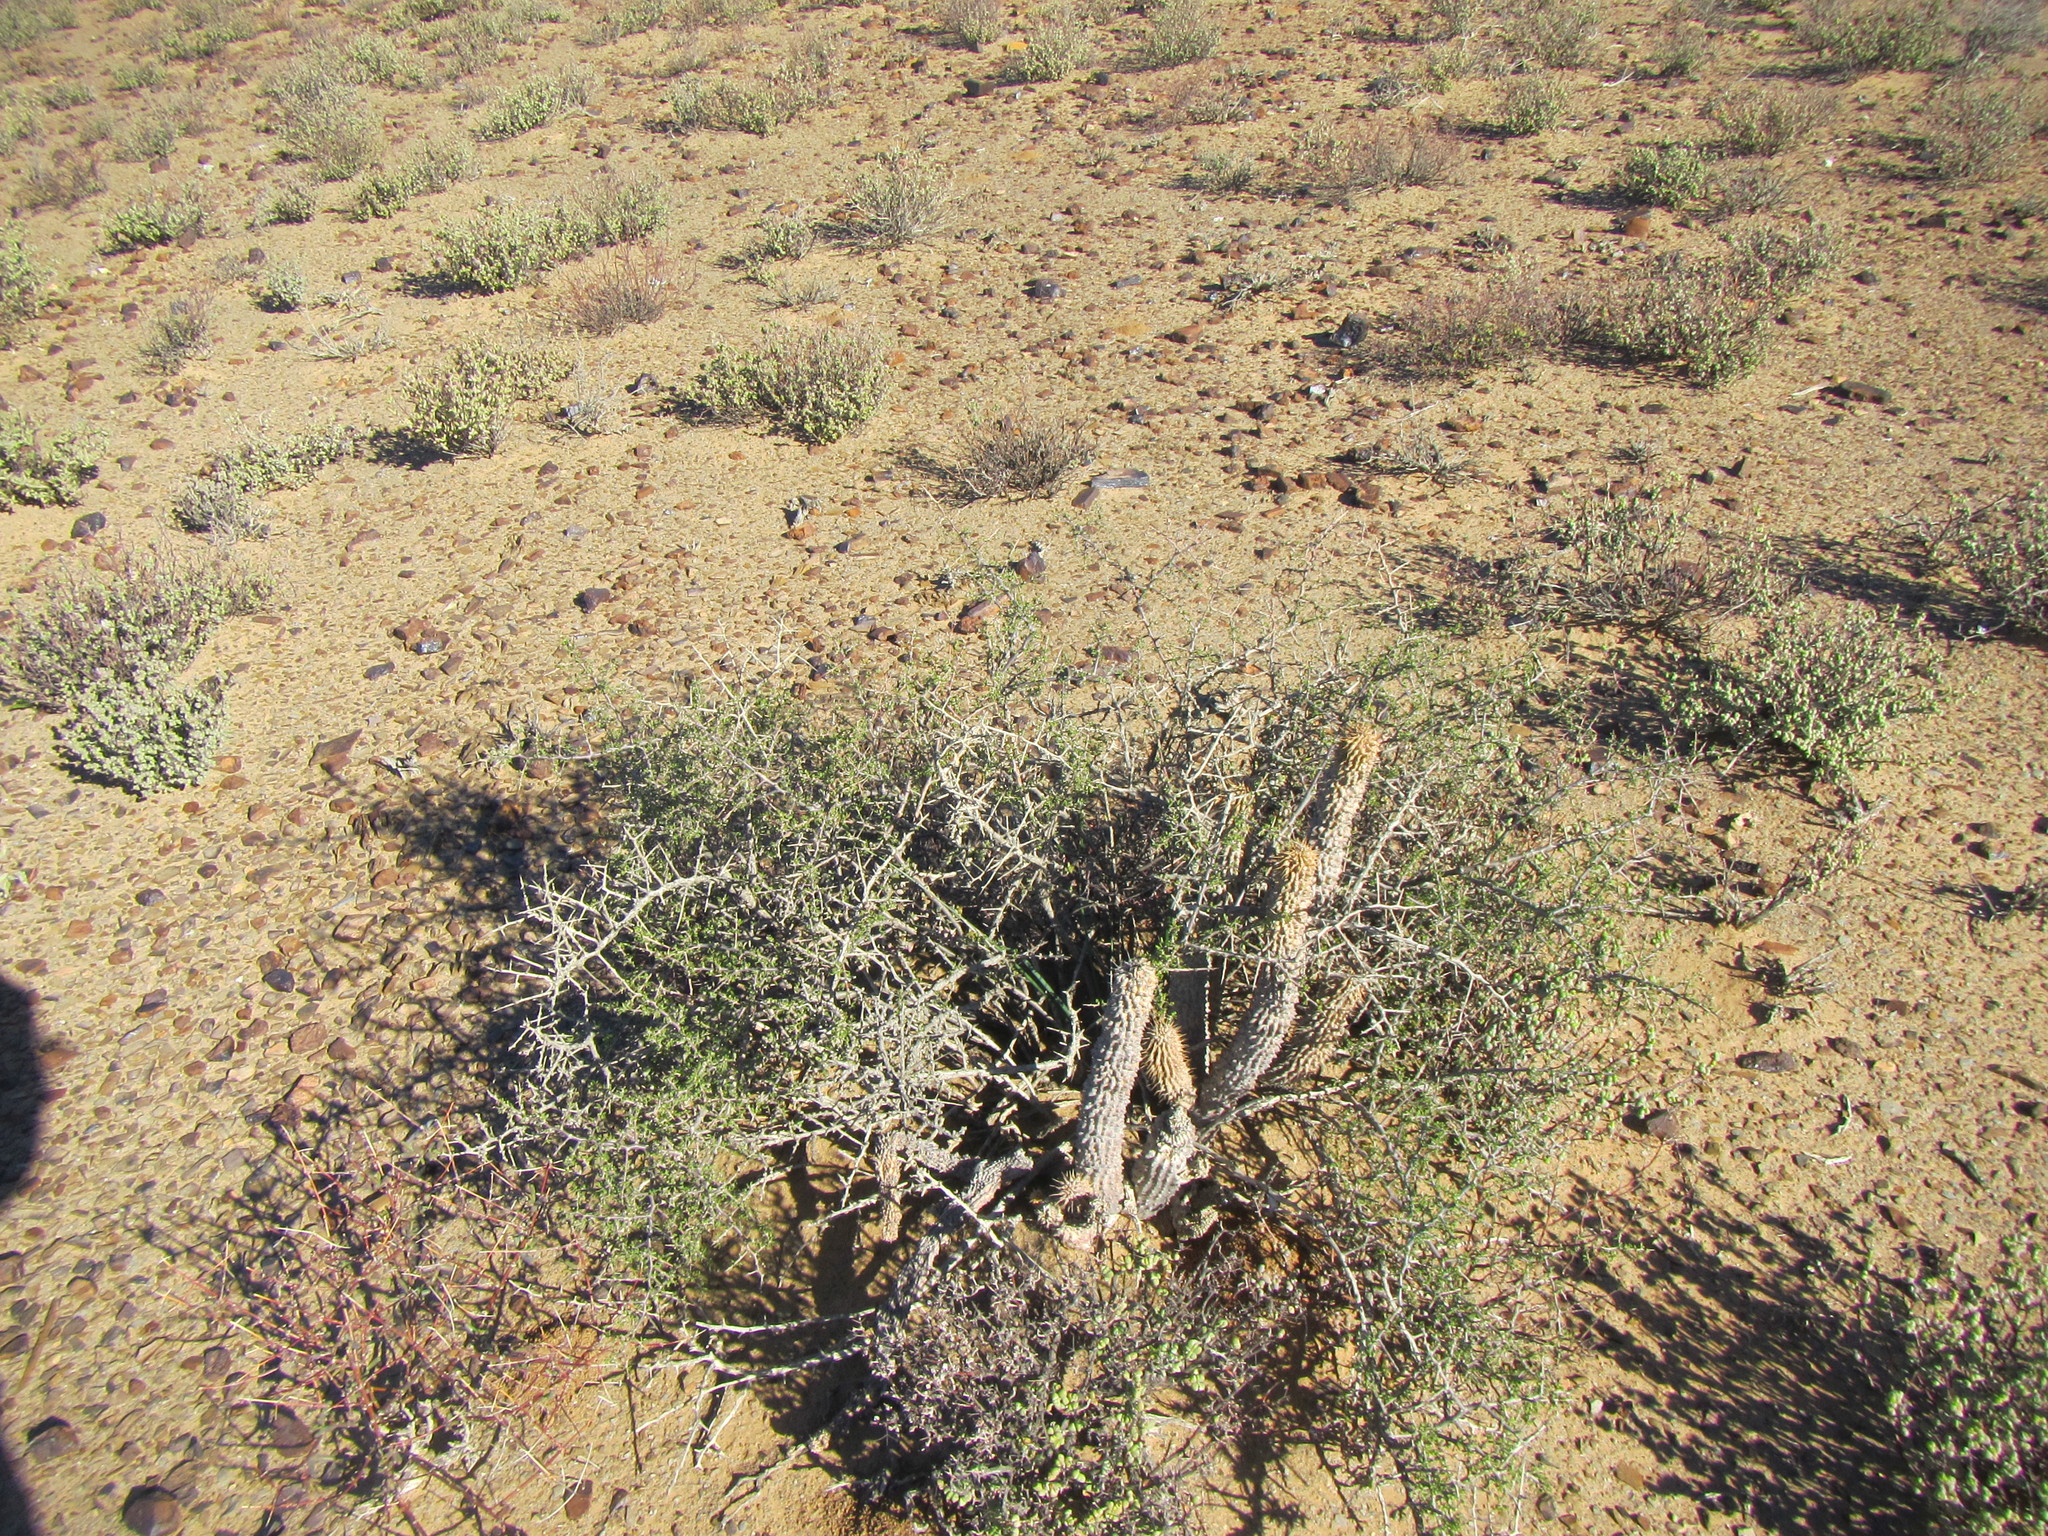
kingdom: Plantae
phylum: Tracheophyta
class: Magnoliopsida
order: Gentianales
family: Apocynaceae
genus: Hoodia
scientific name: Hoodia gordonii
